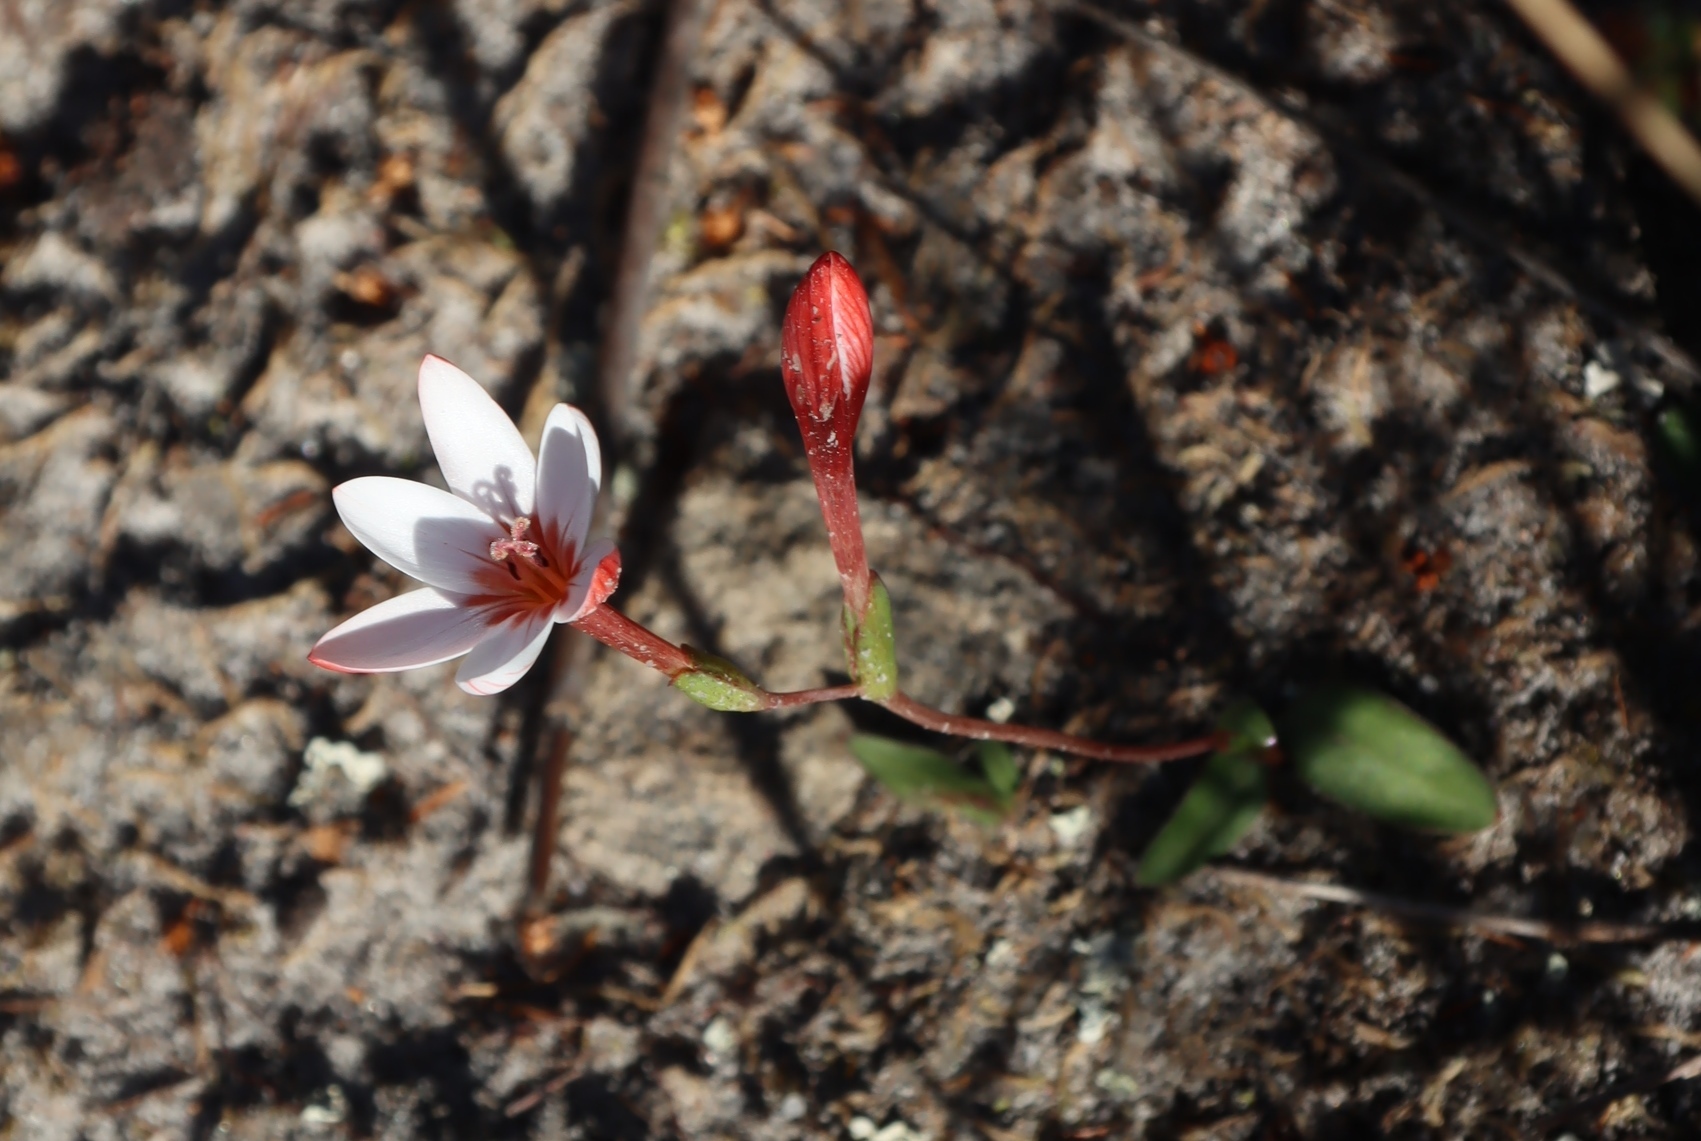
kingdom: Plantae
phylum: Tracheophyta
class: Liliopsida
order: Asparagales
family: Iridaceae
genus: Geissorhiza
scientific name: Geissorhiza ovata
